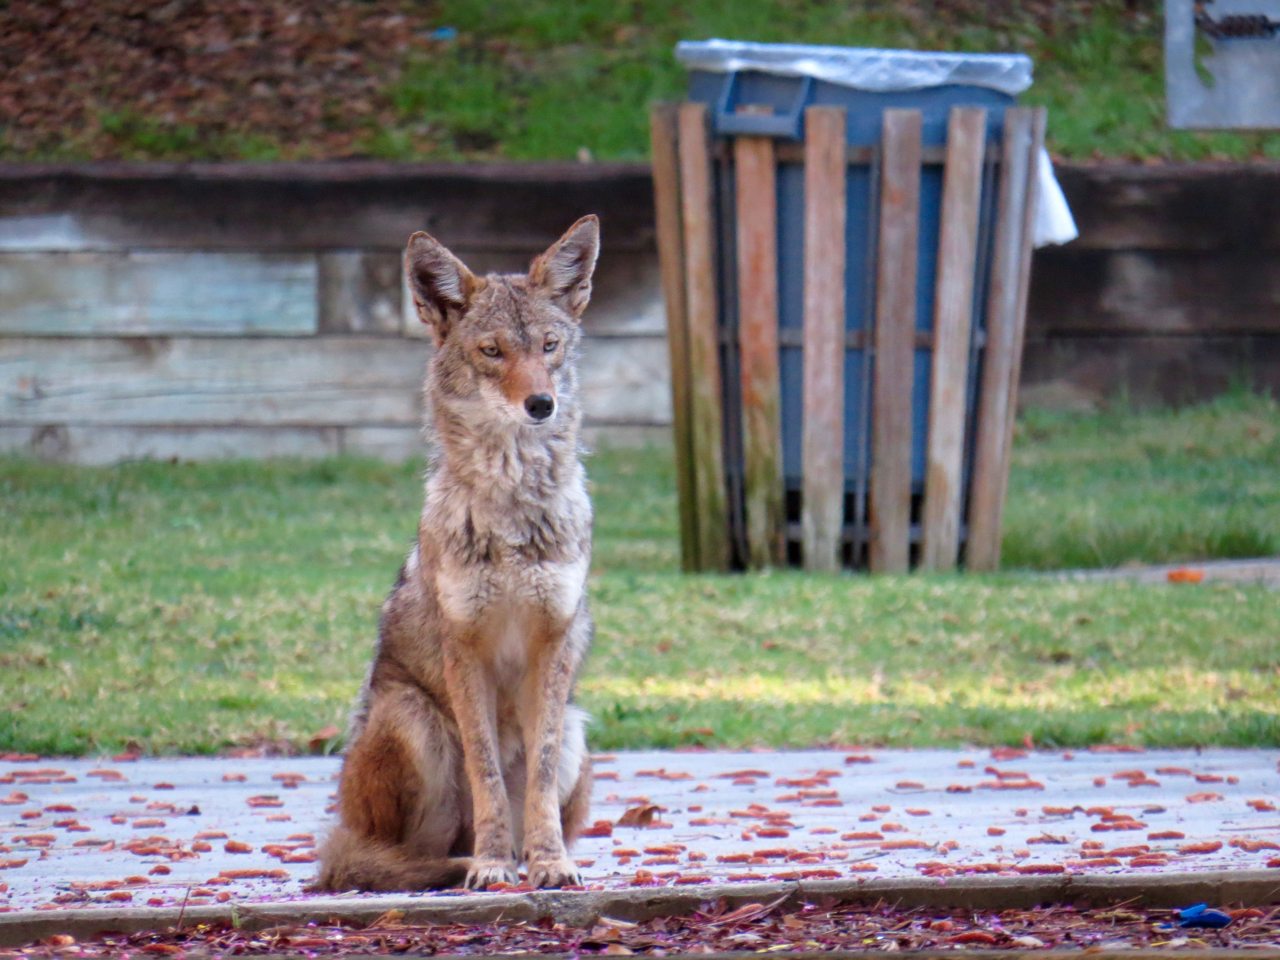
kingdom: Animalia
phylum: Chordata
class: Mammalia
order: Carnivora
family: Canidae
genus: Canis
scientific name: Canis latrans
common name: Coyote
